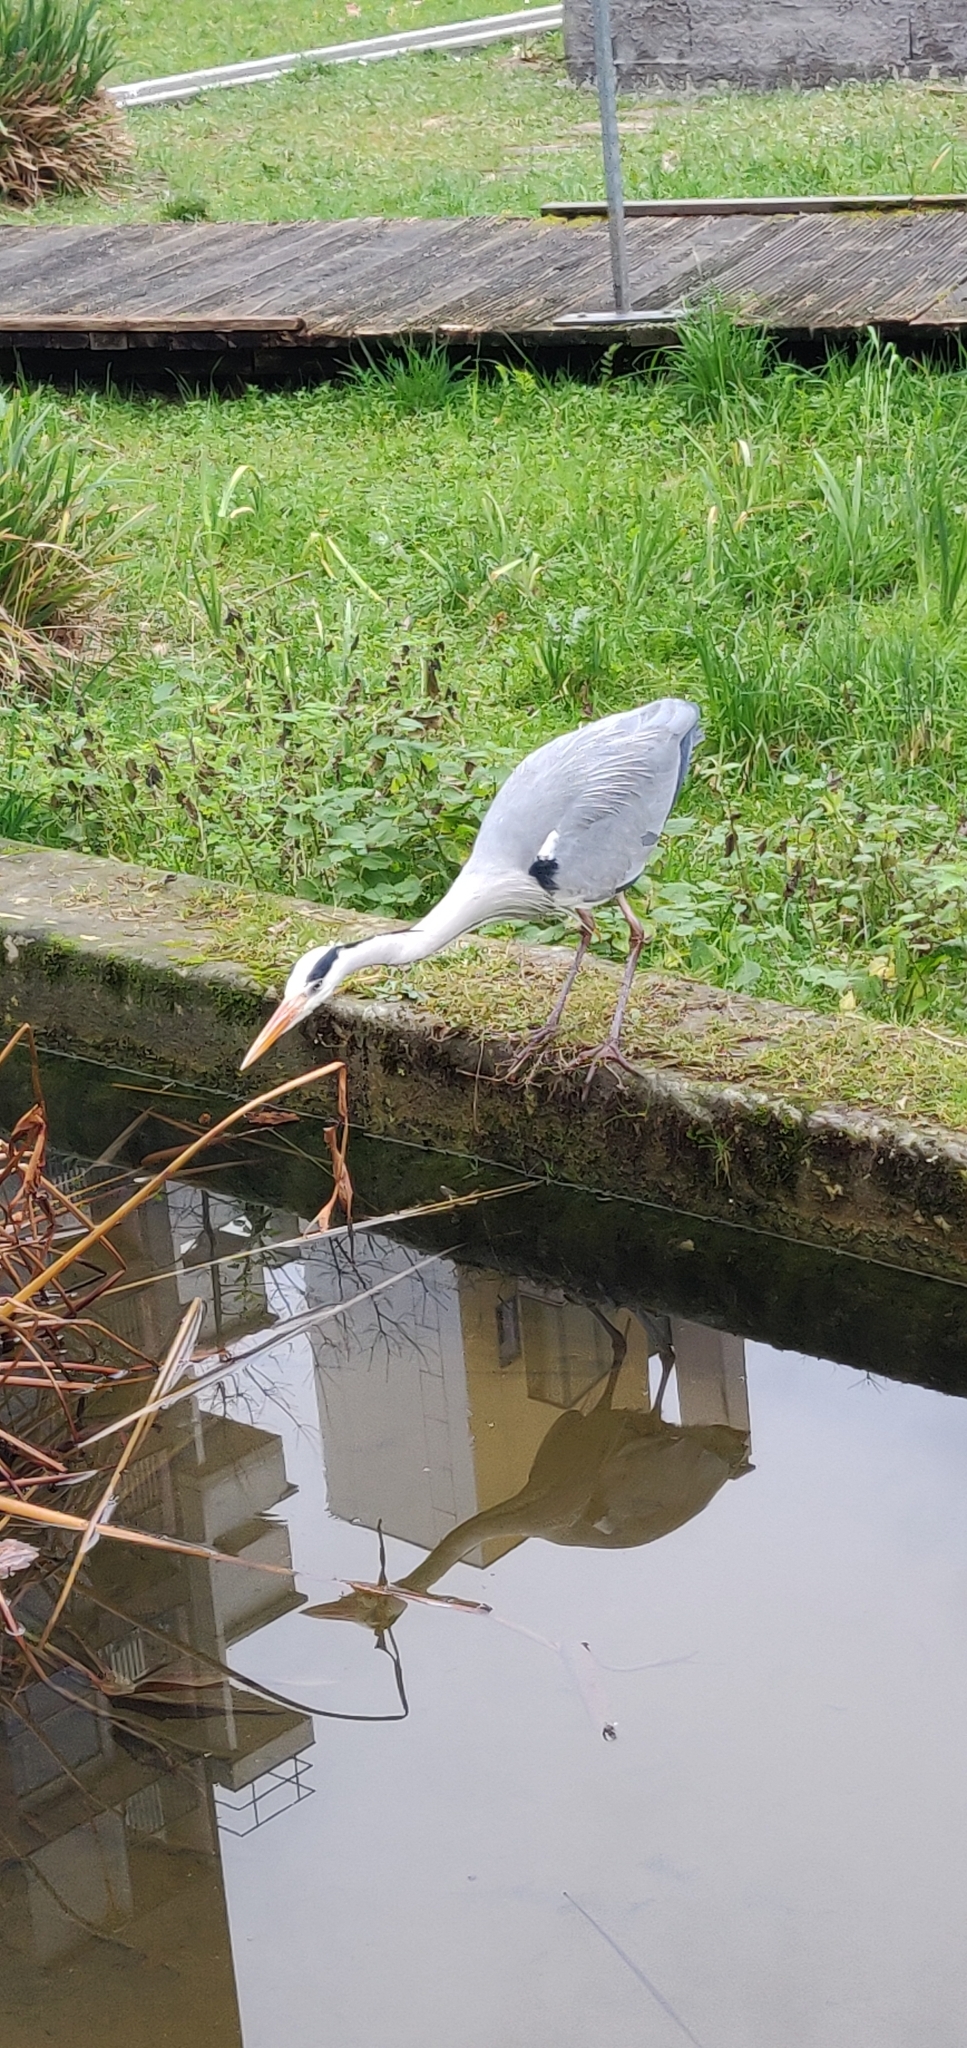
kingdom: Animalia
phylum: Chordata
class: Aves
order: Pelecaniformes
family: Ardeidae
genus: Ardea
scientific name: Ardea cinerea
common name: Grey heron
